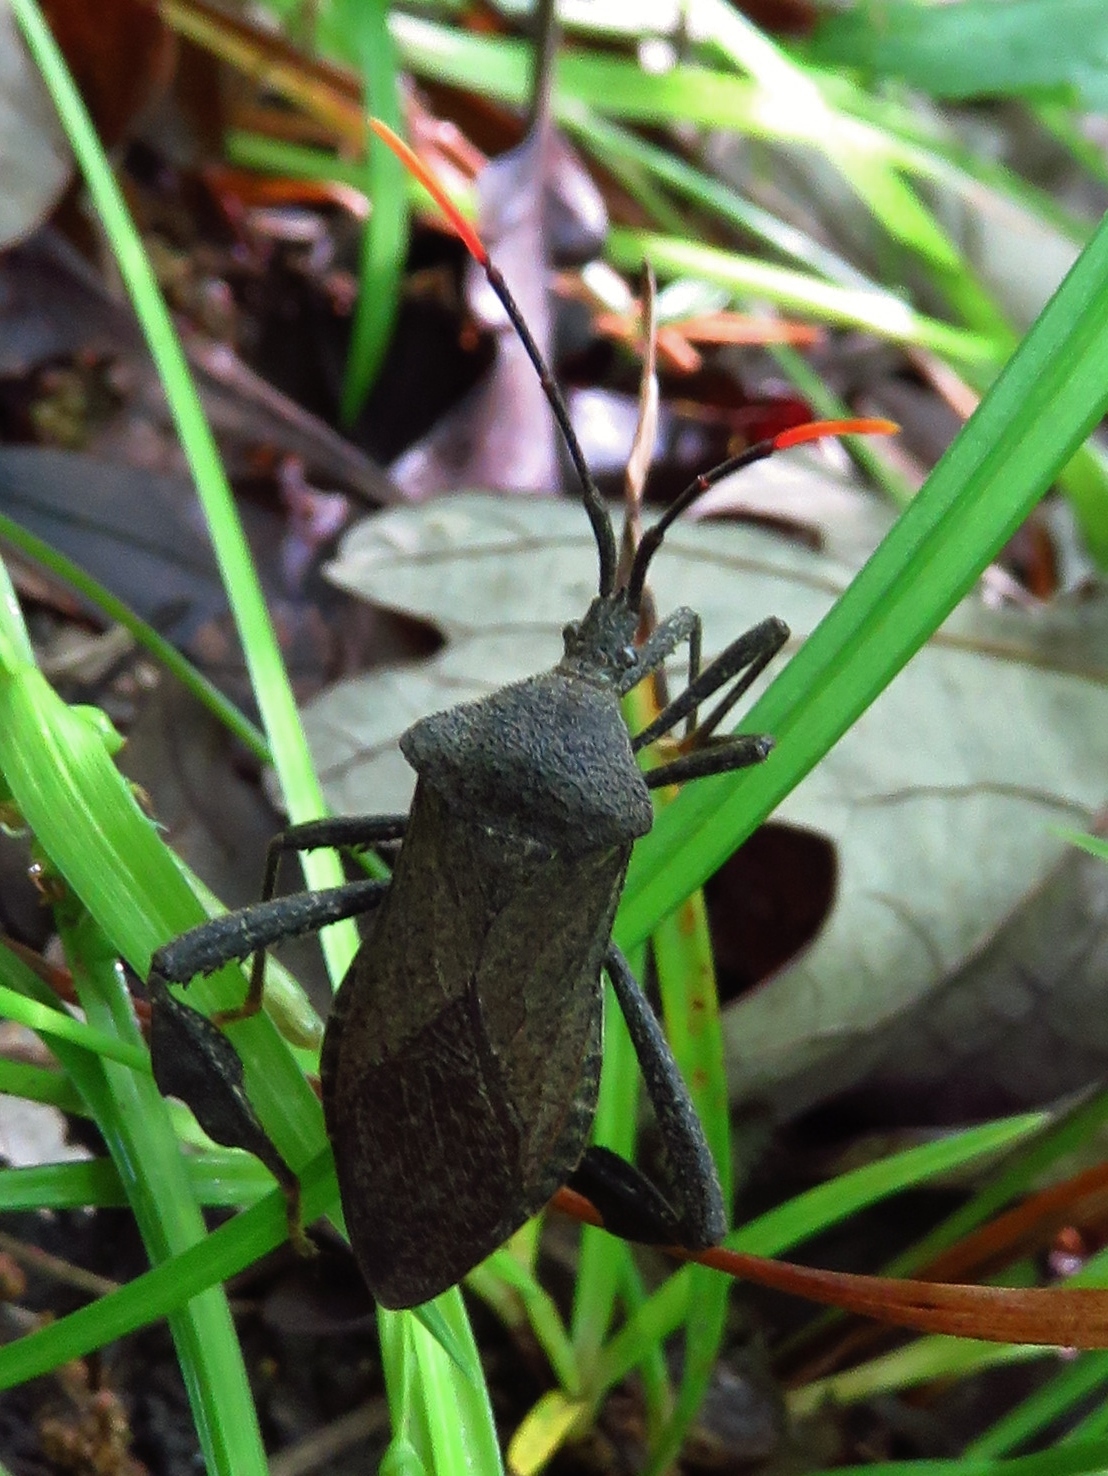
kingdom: Animalia
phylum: Arthropoda
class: Insecta
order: Hemiptera
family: Coreidae
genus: Acanthocephala
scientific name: Acanthocephala terminalis
